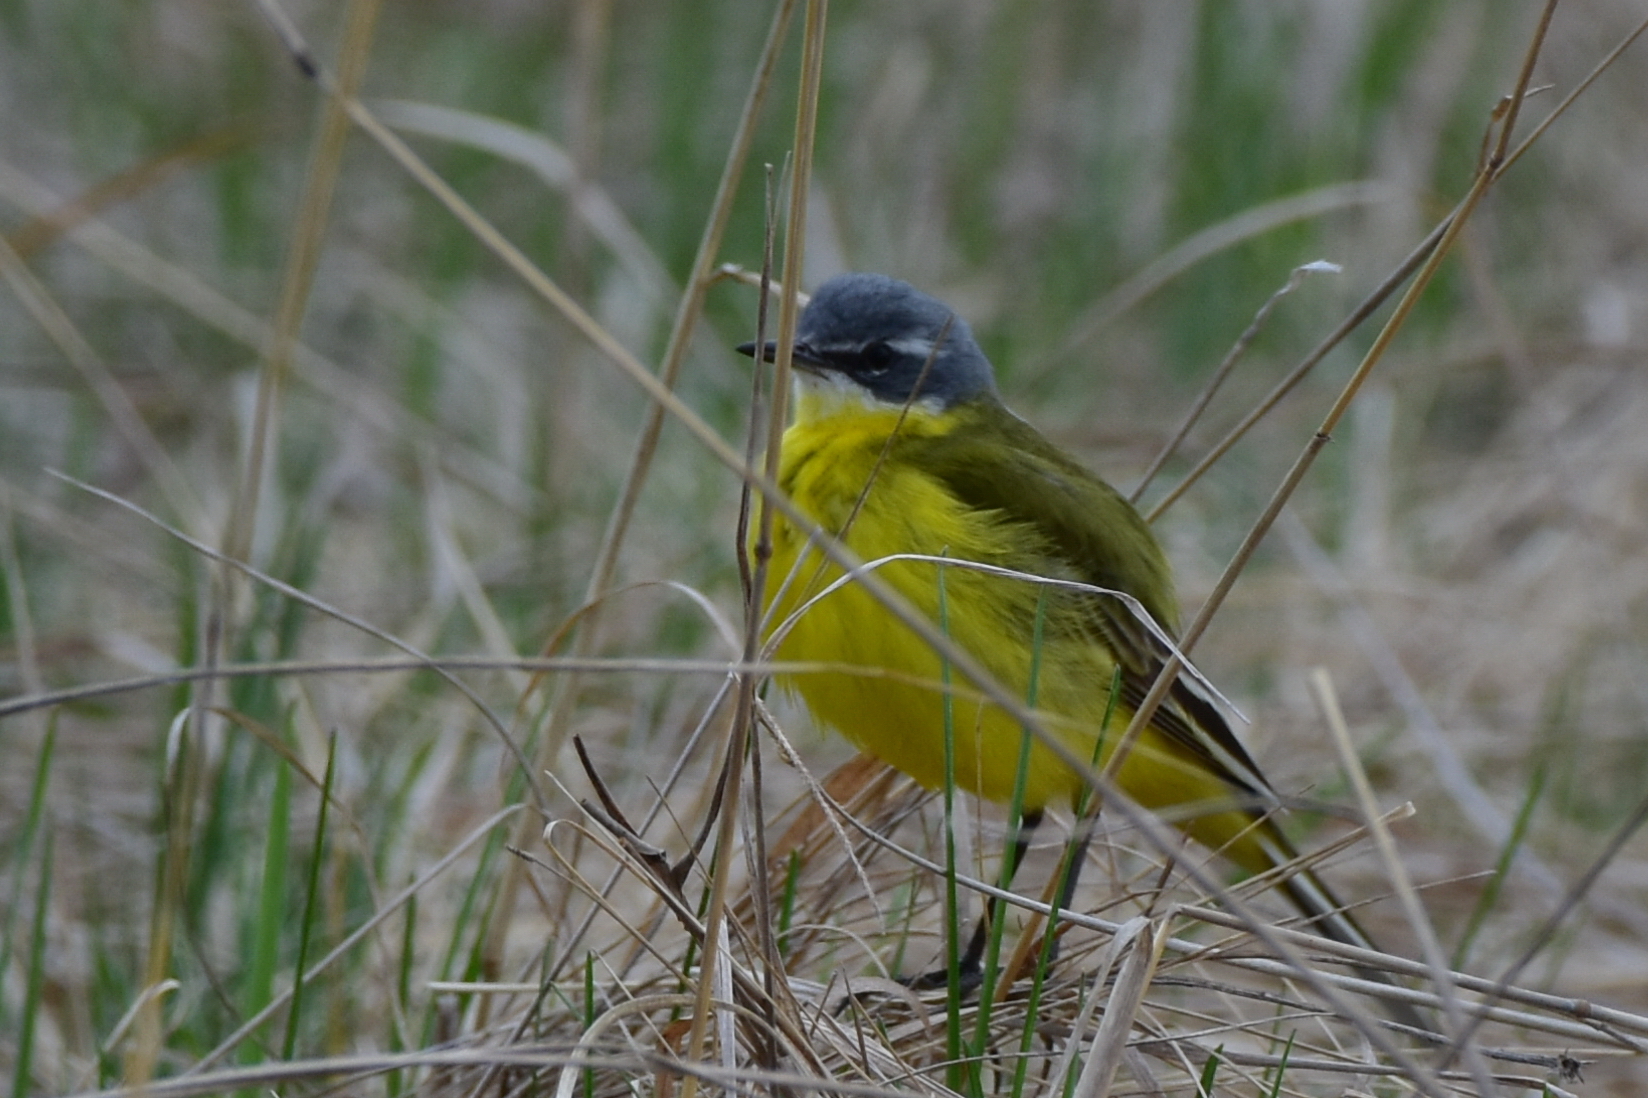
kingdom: Animalia
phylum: Chordata
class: Aves
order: Passeriformes
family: Motacillidae
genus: Motacilla
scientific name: Motacilla flava
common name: Western yellow wagtail
